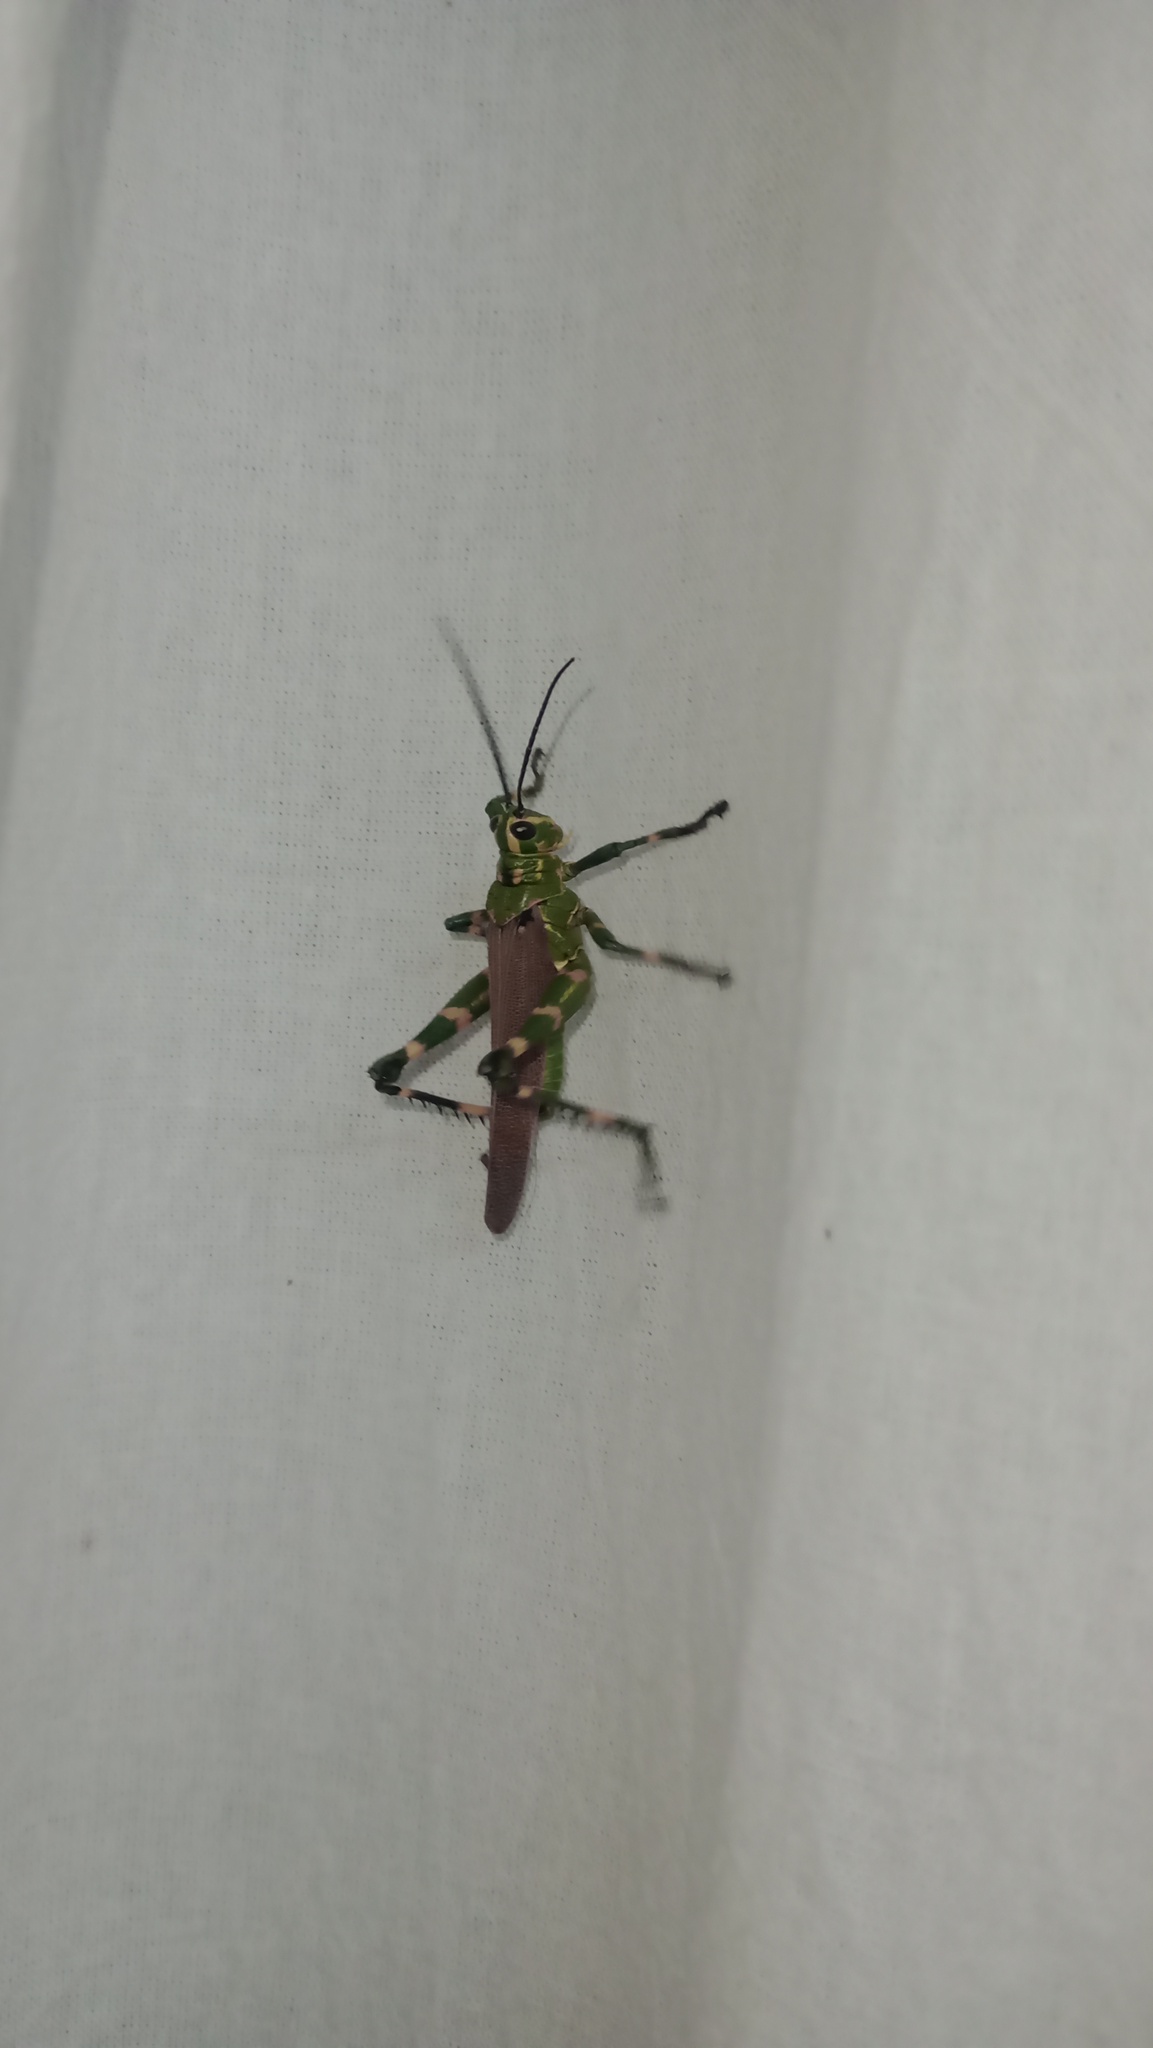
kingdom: Animalia
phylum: Arthropoda
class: Insecta
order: Orthoptera
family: Romaleidae
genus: Chromacris
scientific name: Chromacris speciosa
